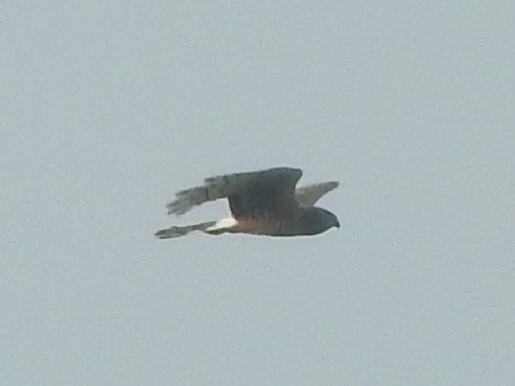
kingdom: Animalia
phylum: Chordata
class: Aves
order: Accipitriformes
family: Accipitridae
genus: Circus
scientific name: Circus cinereus
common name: Cinereous harrier
